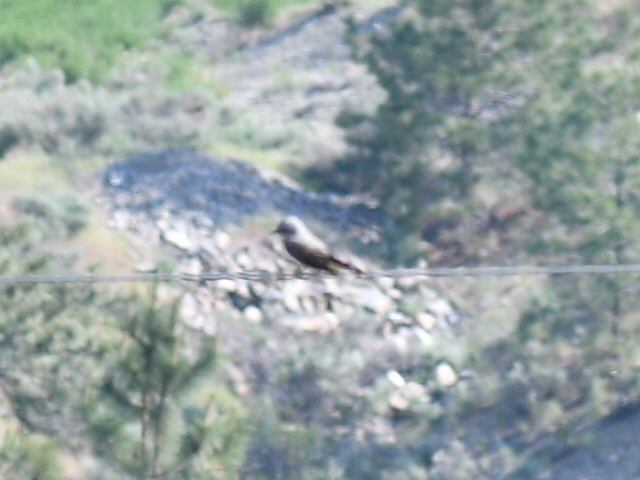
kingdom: Animalia
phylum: Chordata
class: Aves
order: Passeriformes
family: Tyrannidae
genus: Tyrannus
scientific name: Tyrannus verticalis
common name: Western kingbird
